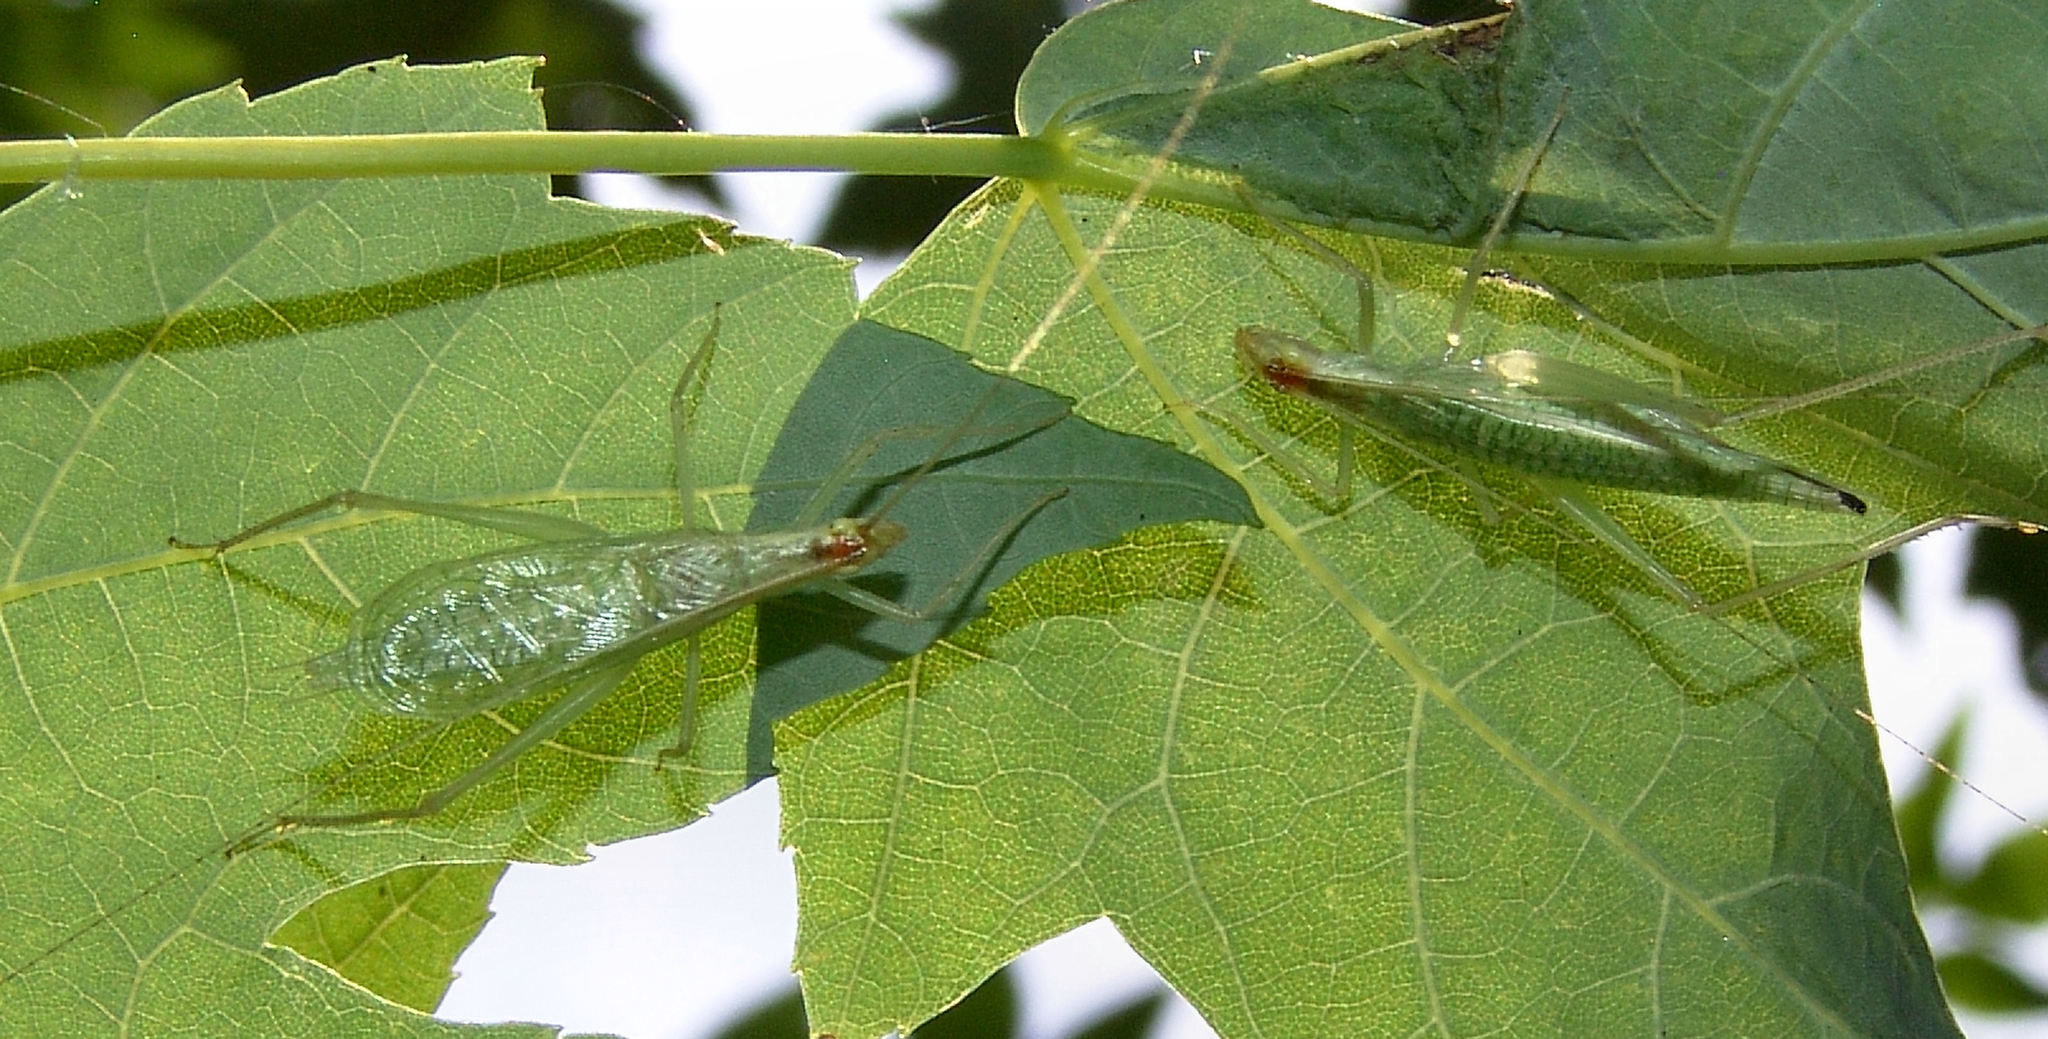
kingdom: Animalia
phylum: Arthropoda
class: Insecta
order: Orthoptera
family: Gryllidae
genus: Oecanthus
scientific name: Oecanthus niveus
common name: Narrow-winged tree cricket
